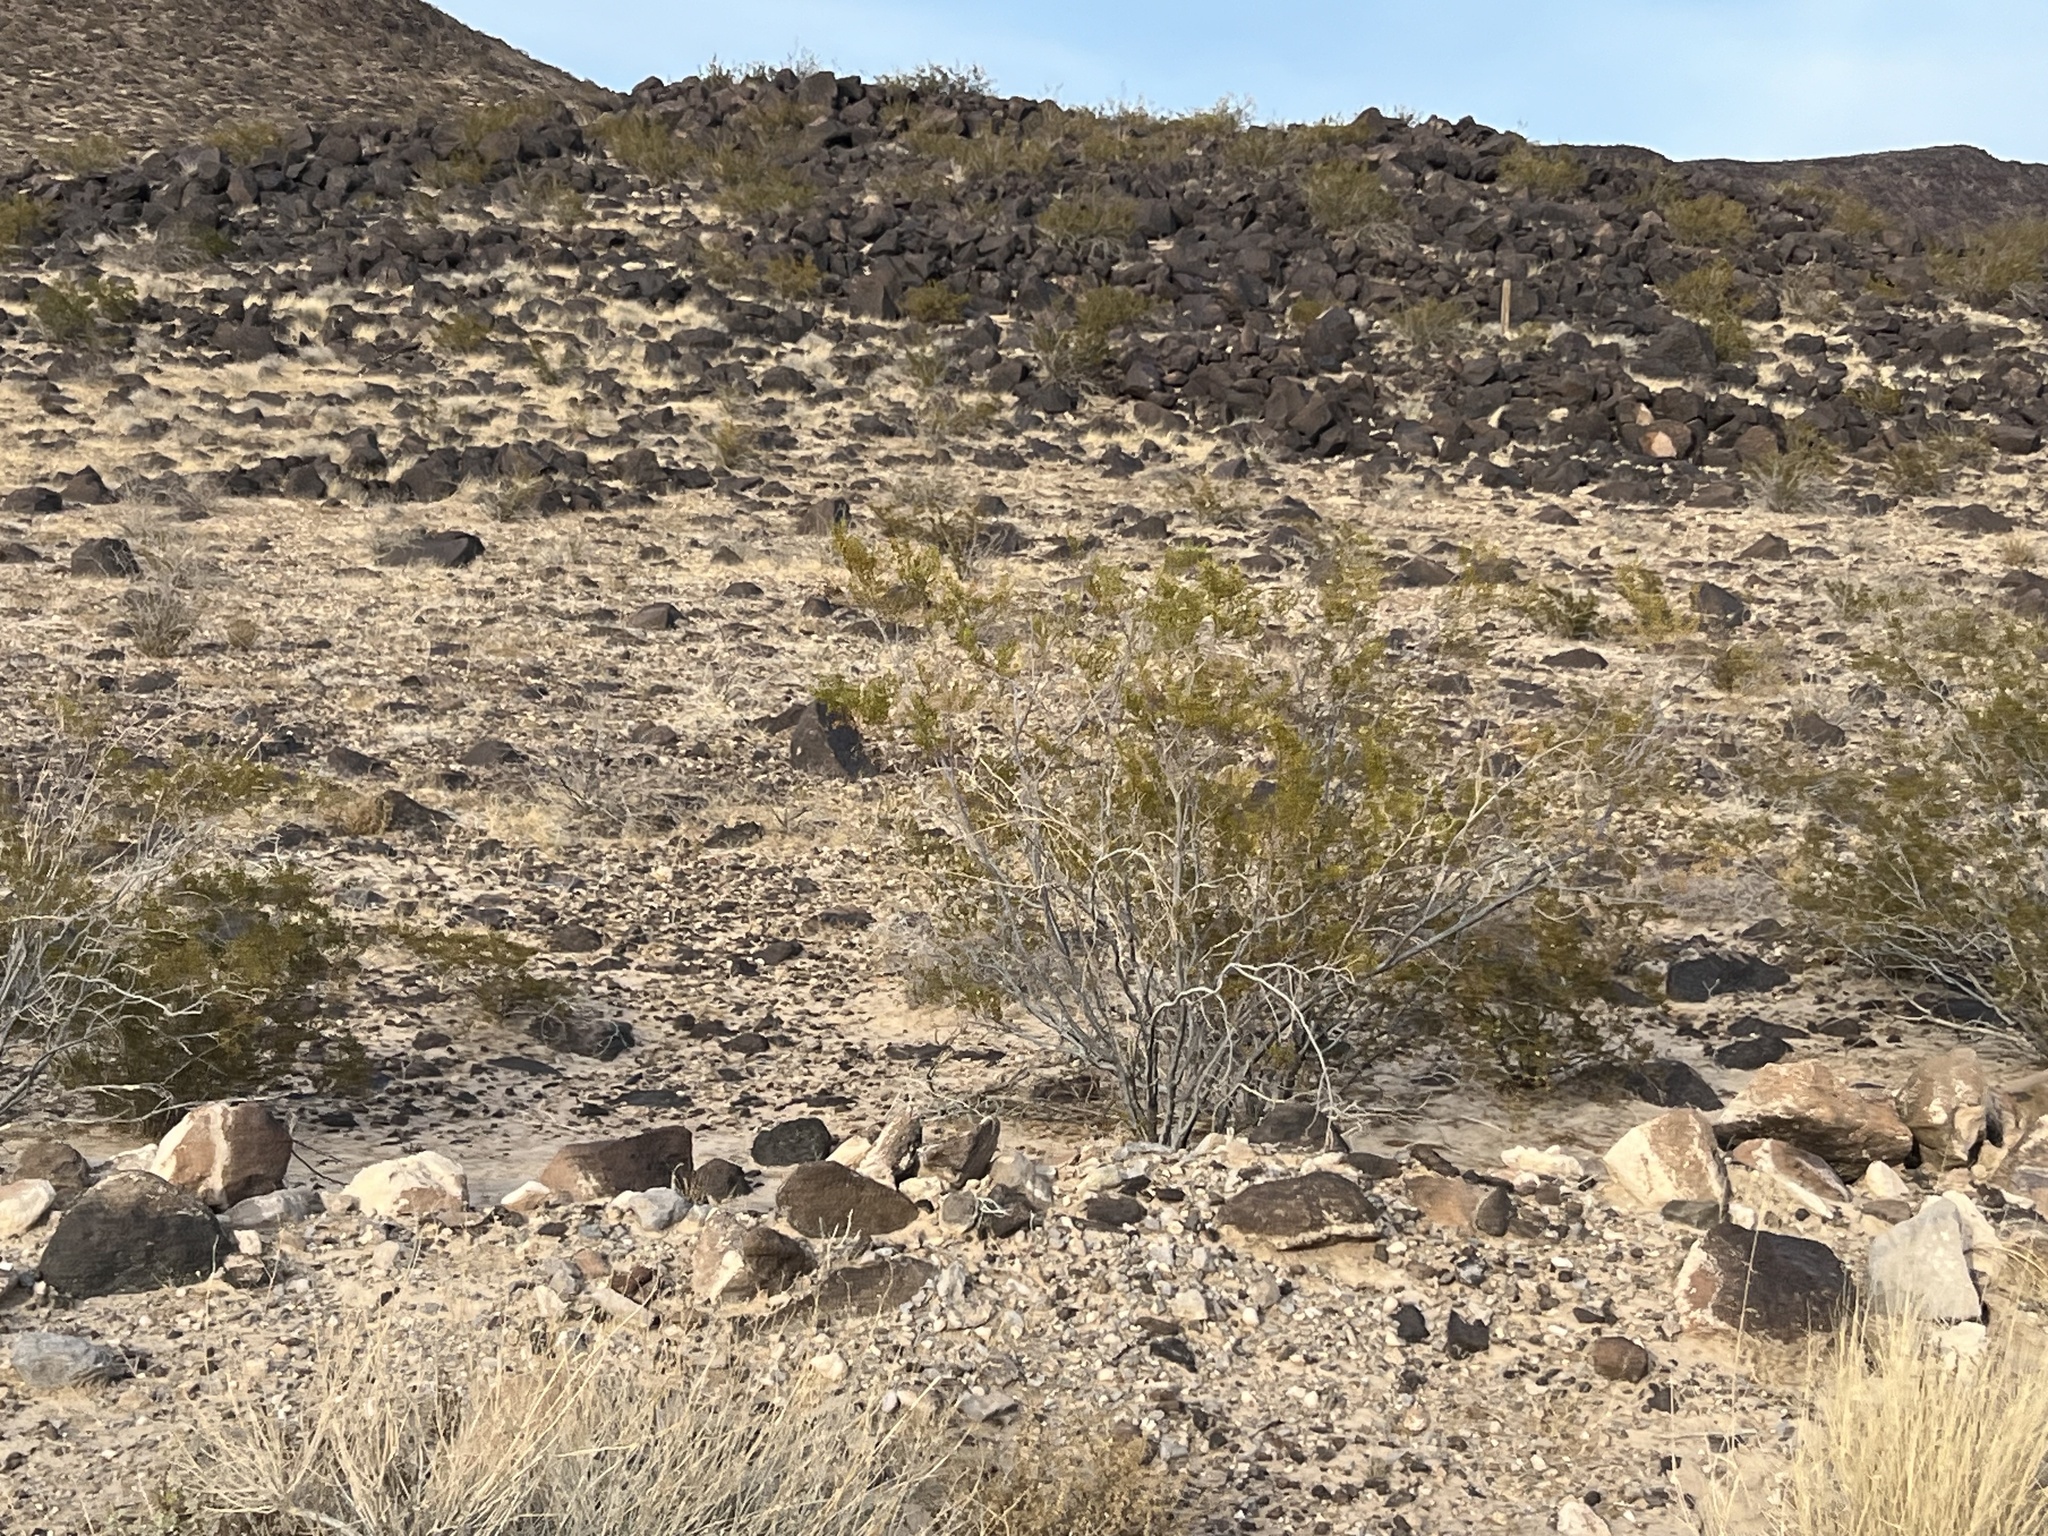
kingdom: Plantae
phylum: Tracheophyta
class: Magnoliopsida
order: Zygophyllales
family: Zygophyllaceae
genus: Larrea
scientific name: Larrea tridentata
